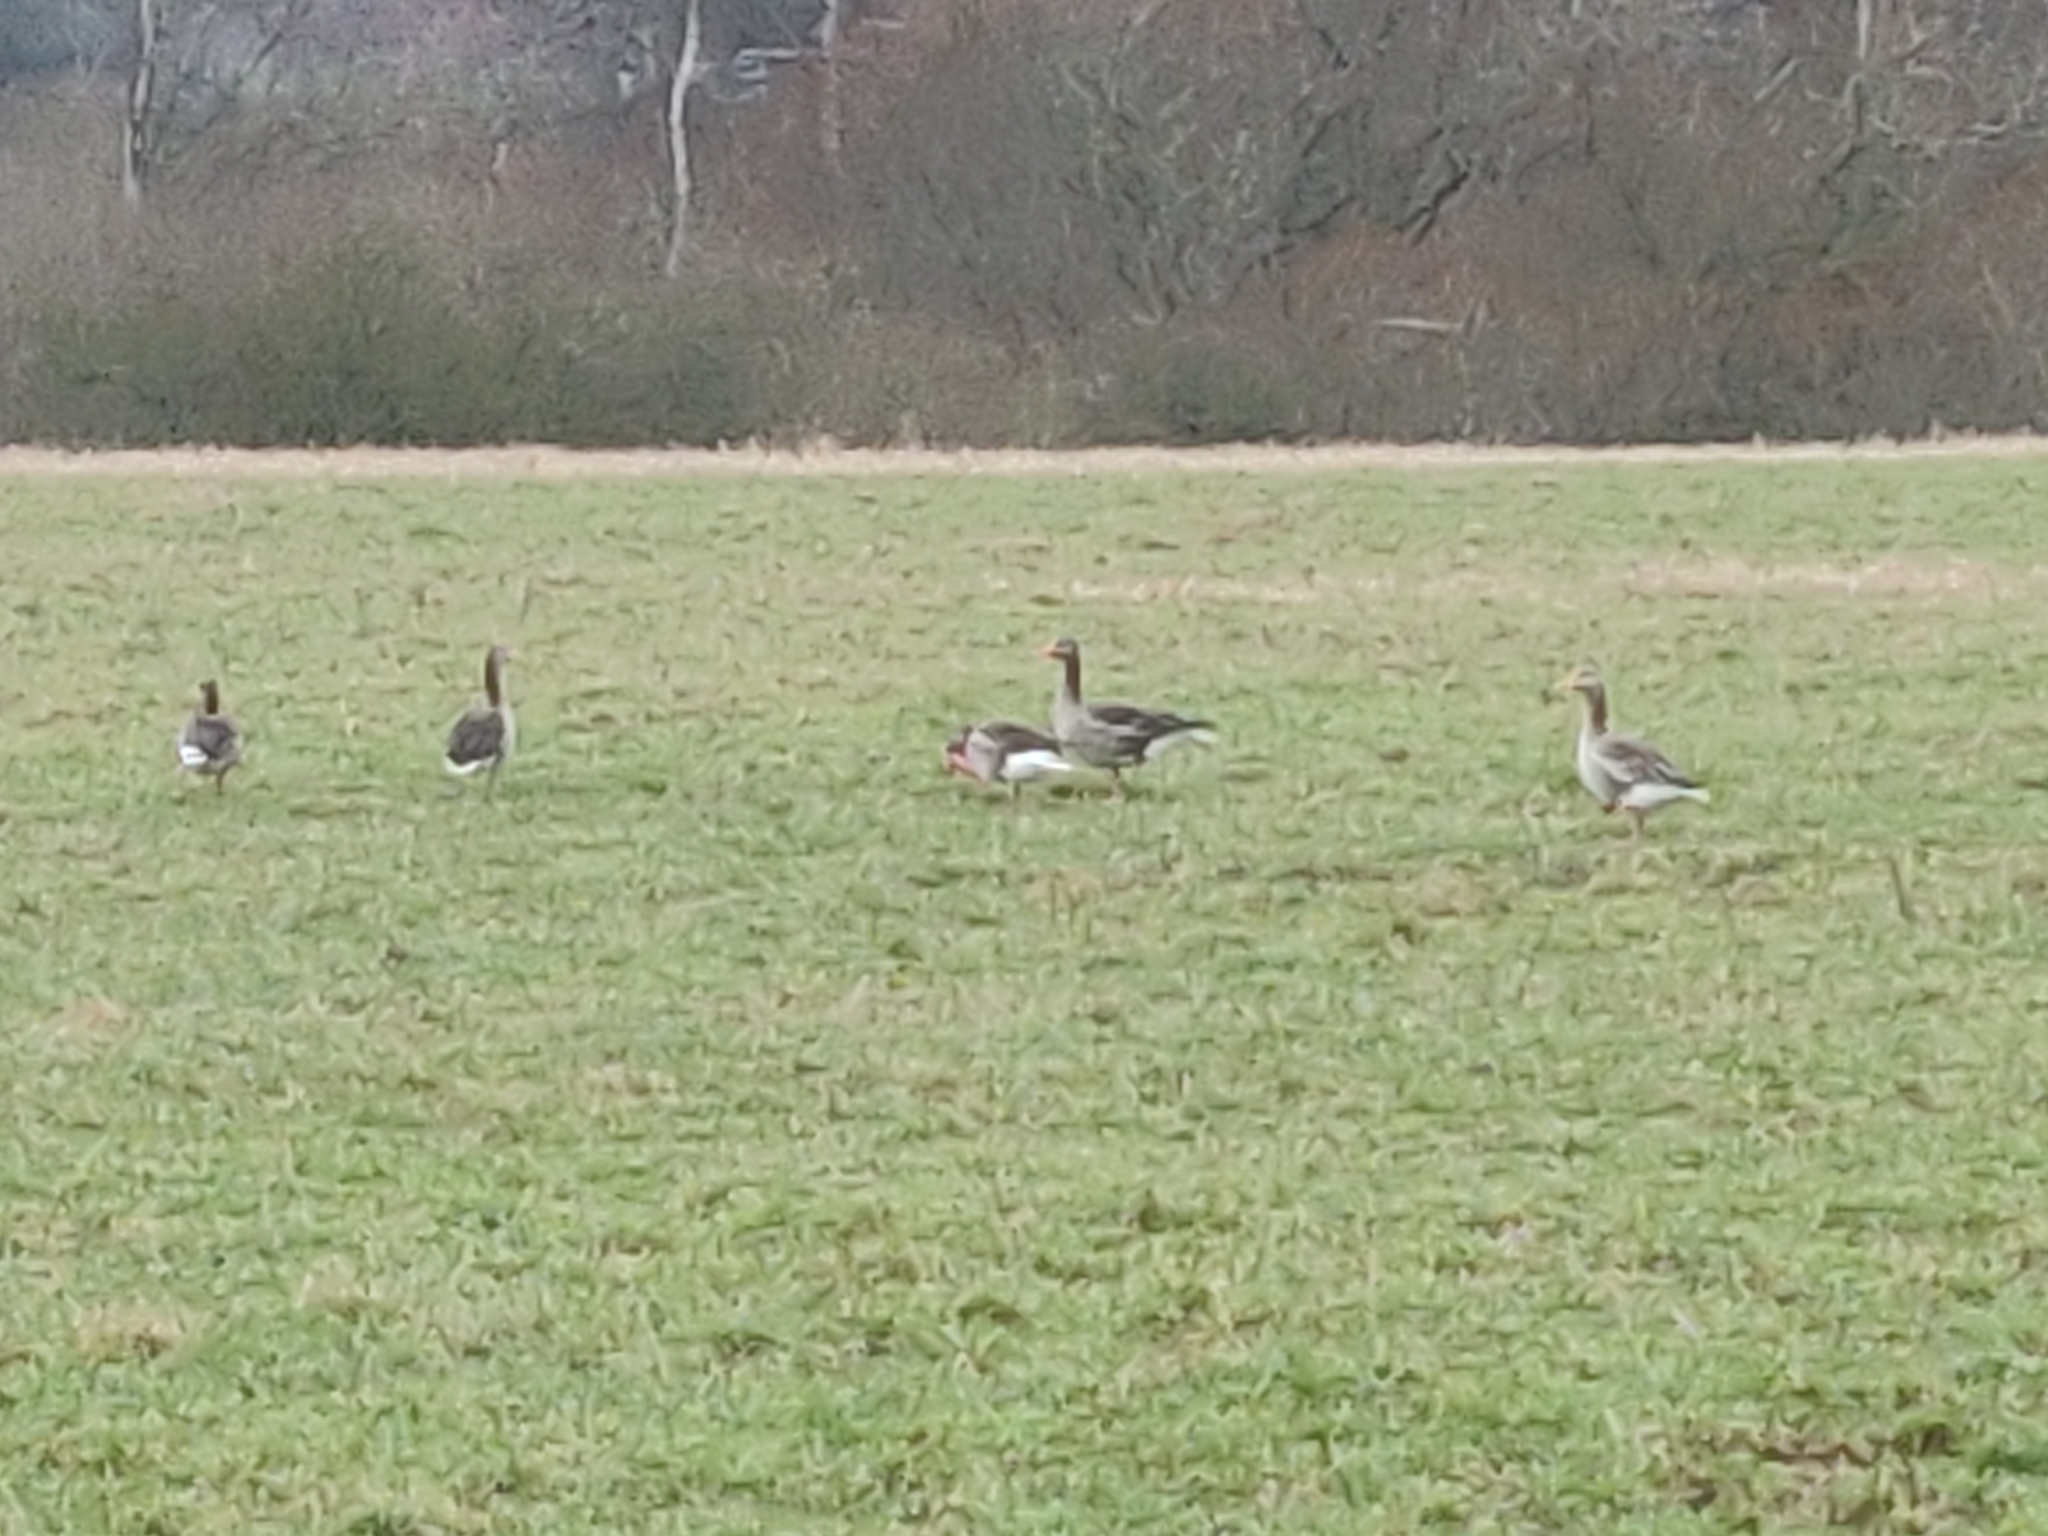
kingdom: Animalia
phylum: Chordata
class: Aves
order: Anseriformes
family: Anatidae
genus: Anser
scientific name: Anser anser
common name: Greylag goose
